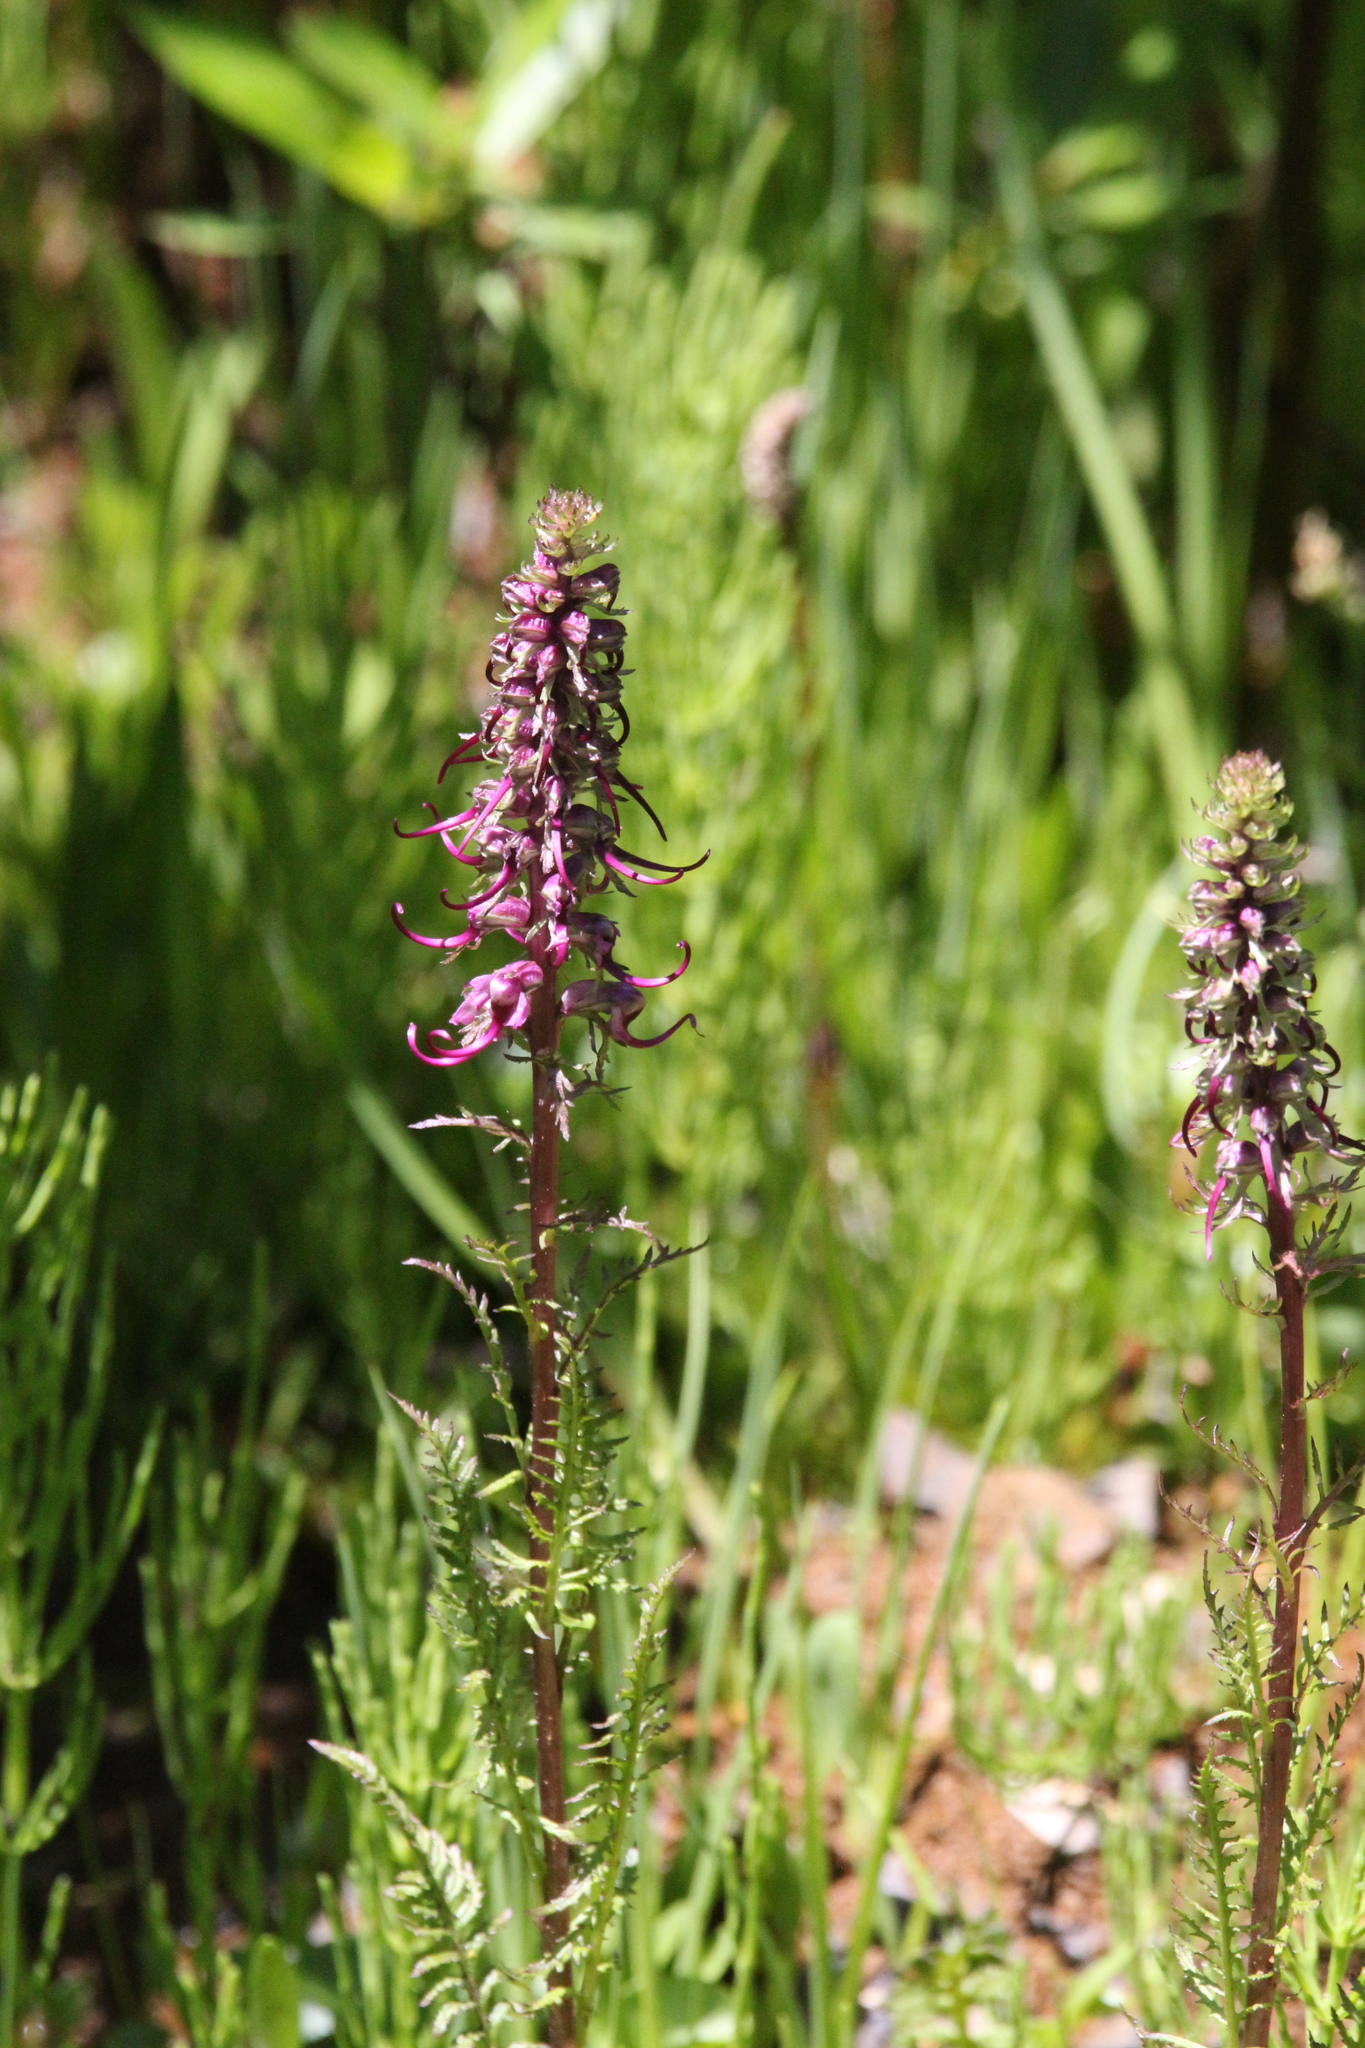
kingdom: Plantae
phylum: Tracheophyta
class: Magnoliopsida
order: Lamiales
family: Orobanchaceae
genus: Pedicularis
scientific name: Pedicularis groenlandica
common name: Elephant's-head
